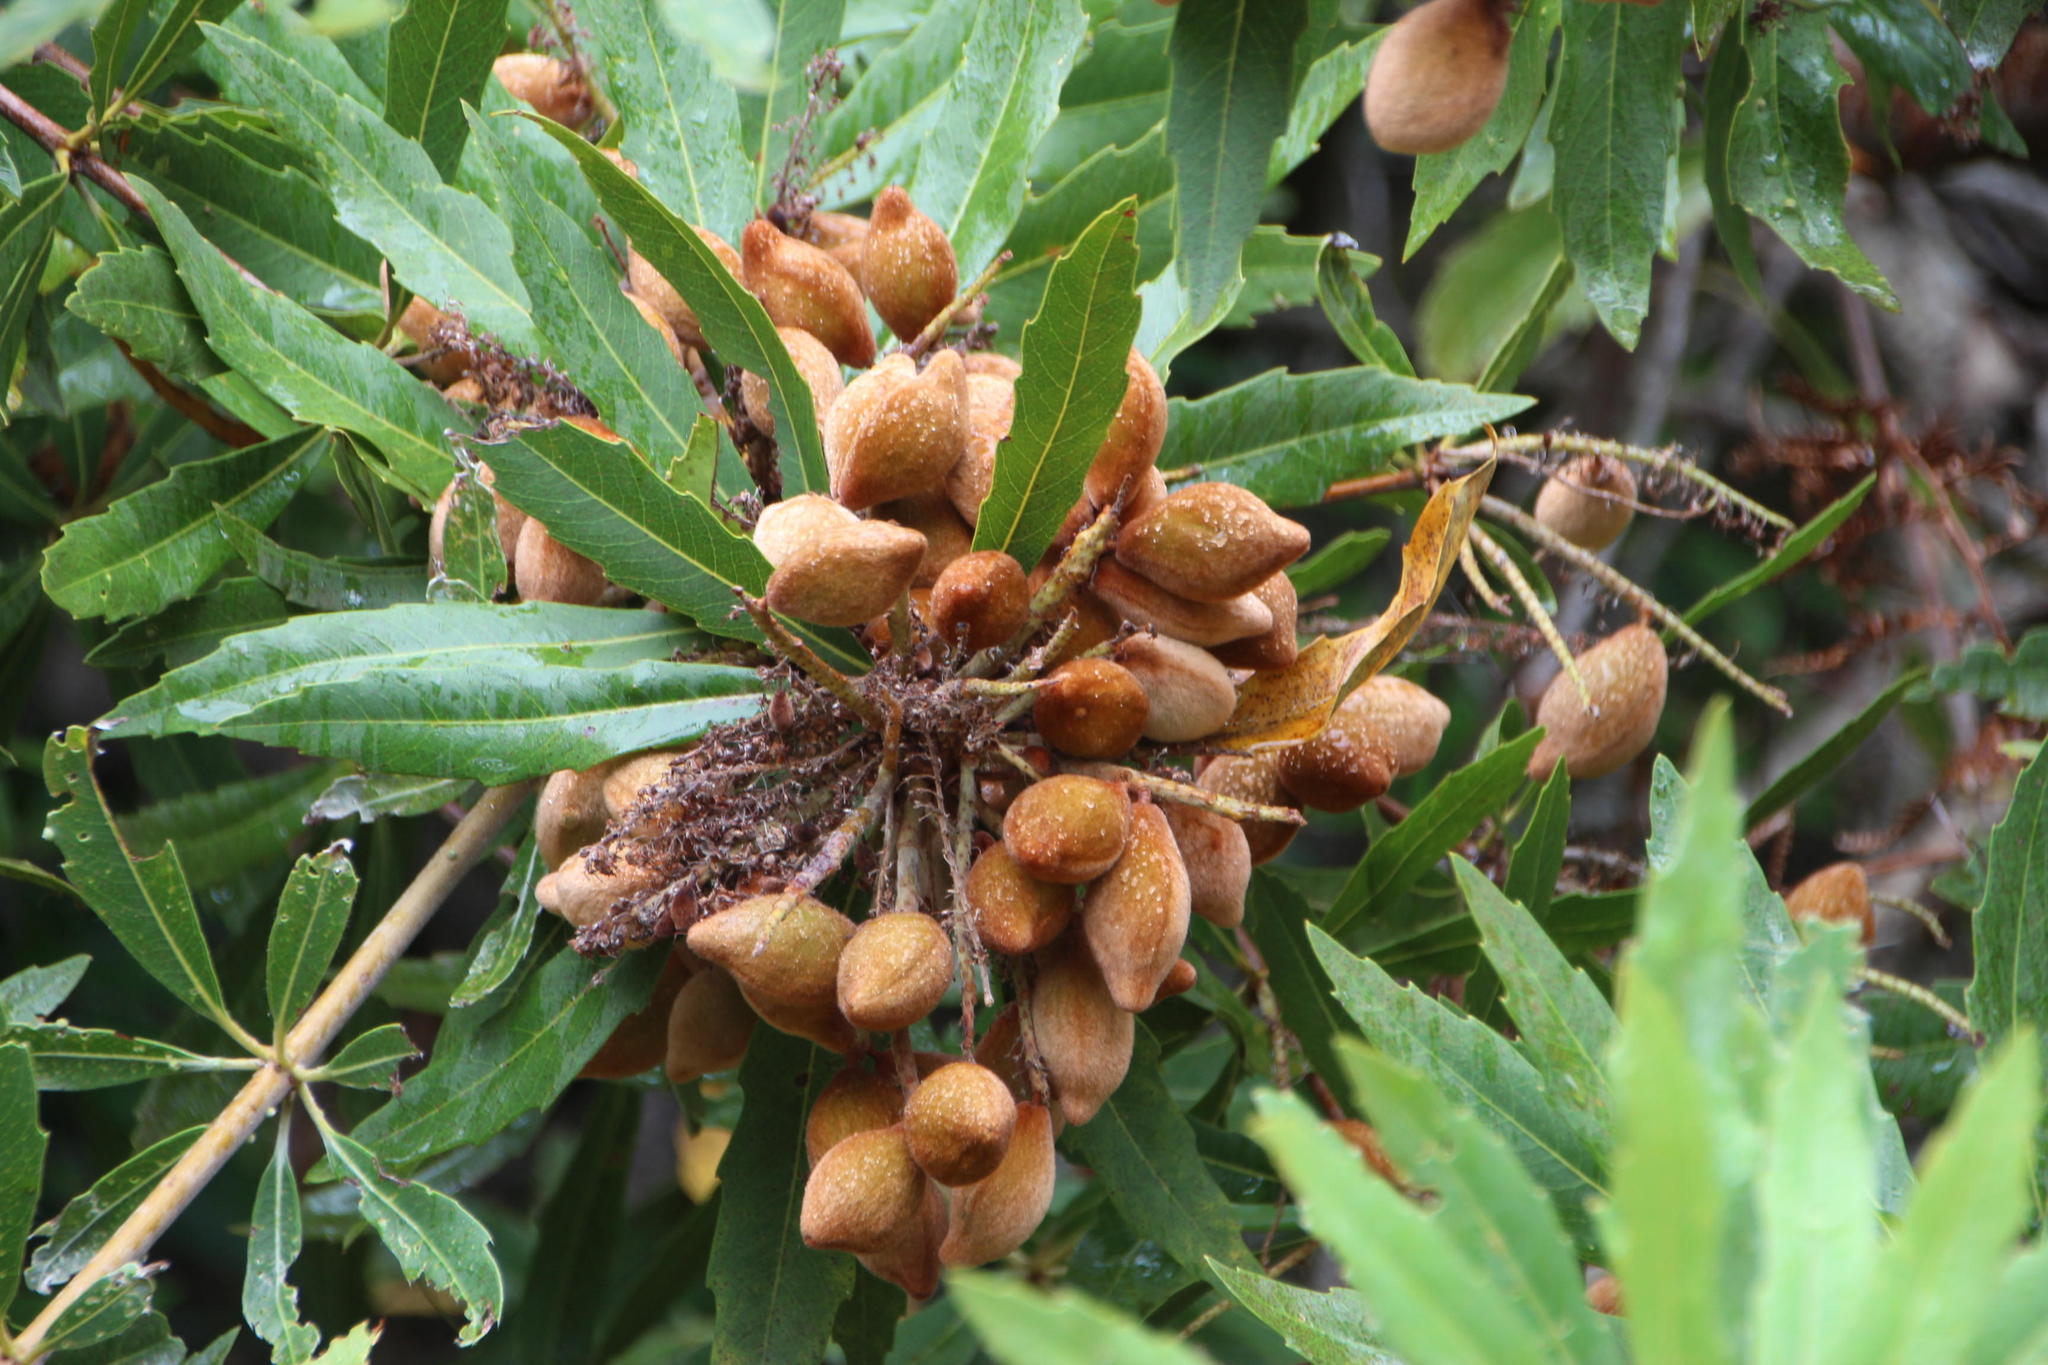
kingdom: Plantae
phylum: Tracheophyta
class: Magnoliopsida
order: Proteales
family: Proteaceae
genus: Brabejum
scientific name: Brabejum stellatifolium
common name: Wild almond
